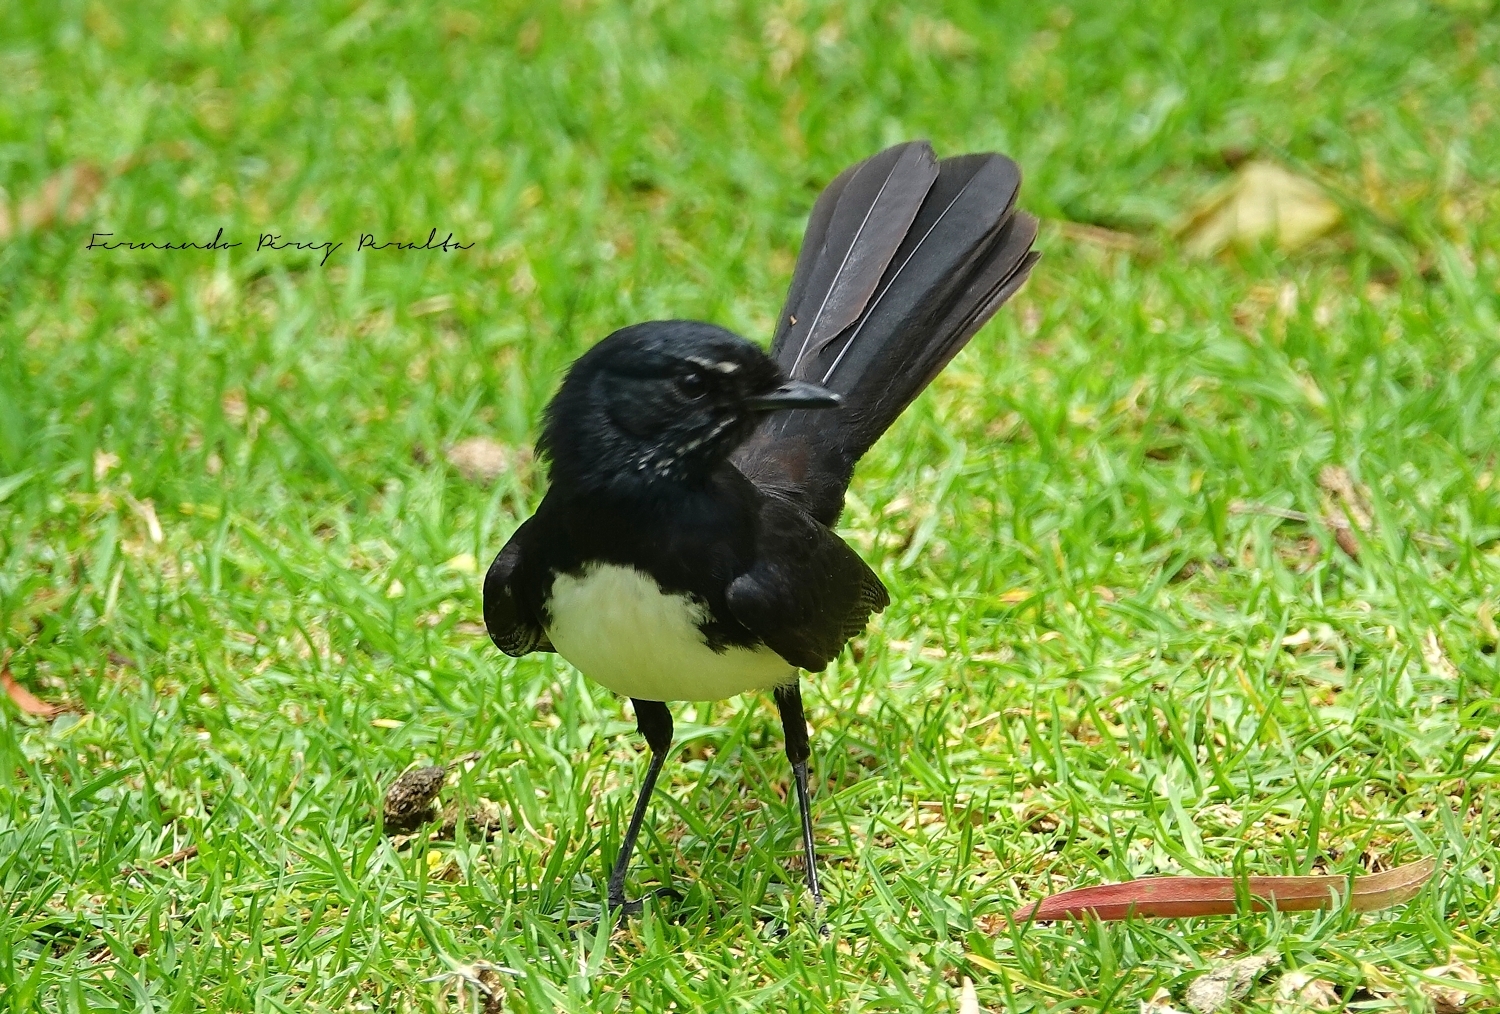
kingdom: Animalia
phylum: Chordata
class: Aves
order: Passeriformes
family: Rhipiduridae
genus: Rhipidura
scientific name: Rhipidura leucophrys
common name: Willie wagtail
